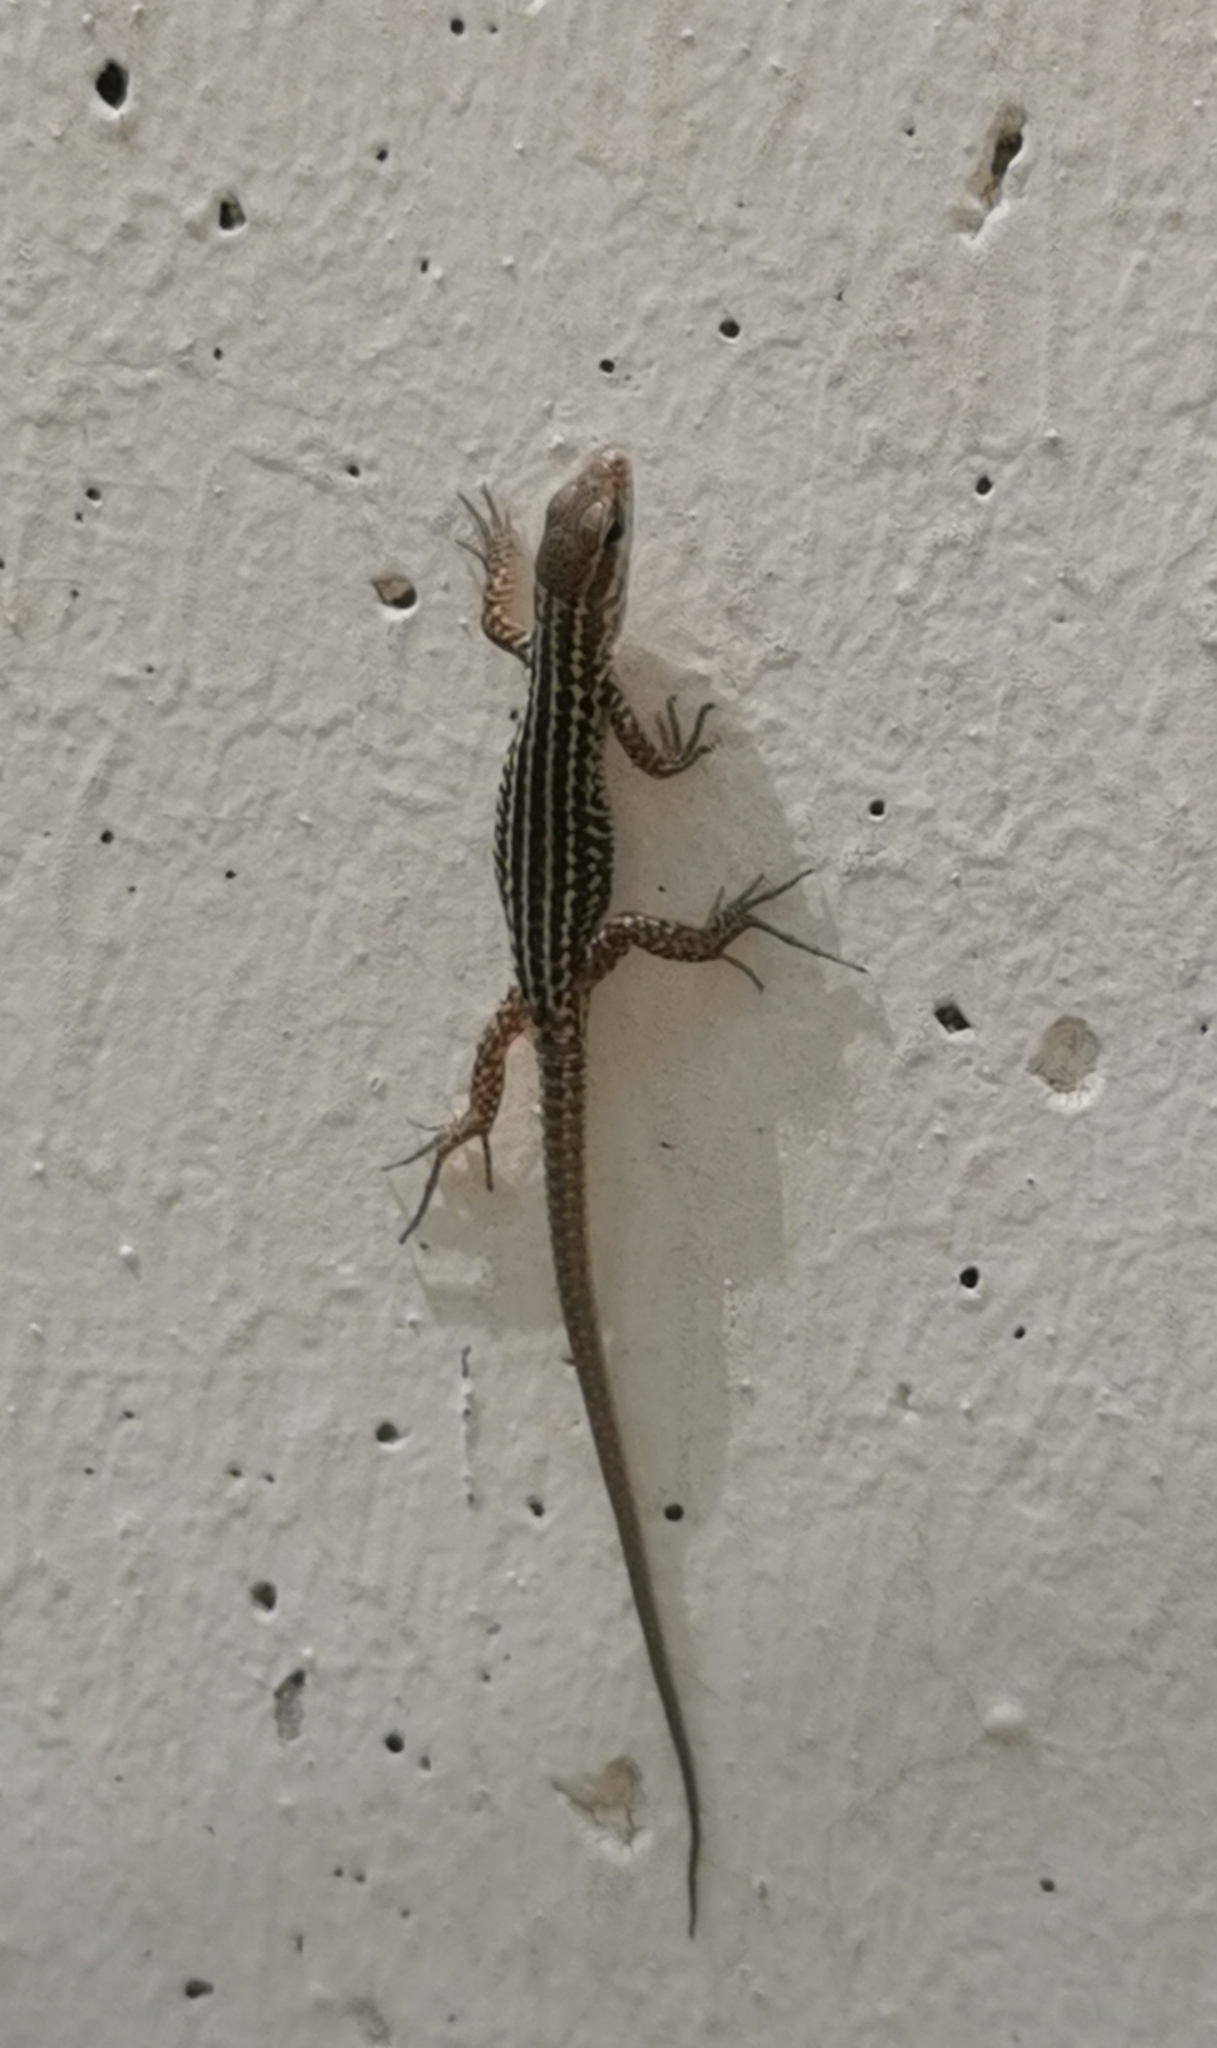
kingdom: Animalia
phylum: Chordata
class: Squamata
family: Lacertidae
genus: Podarcis
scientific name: Podarcis siculus
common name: Italian wall lizard
